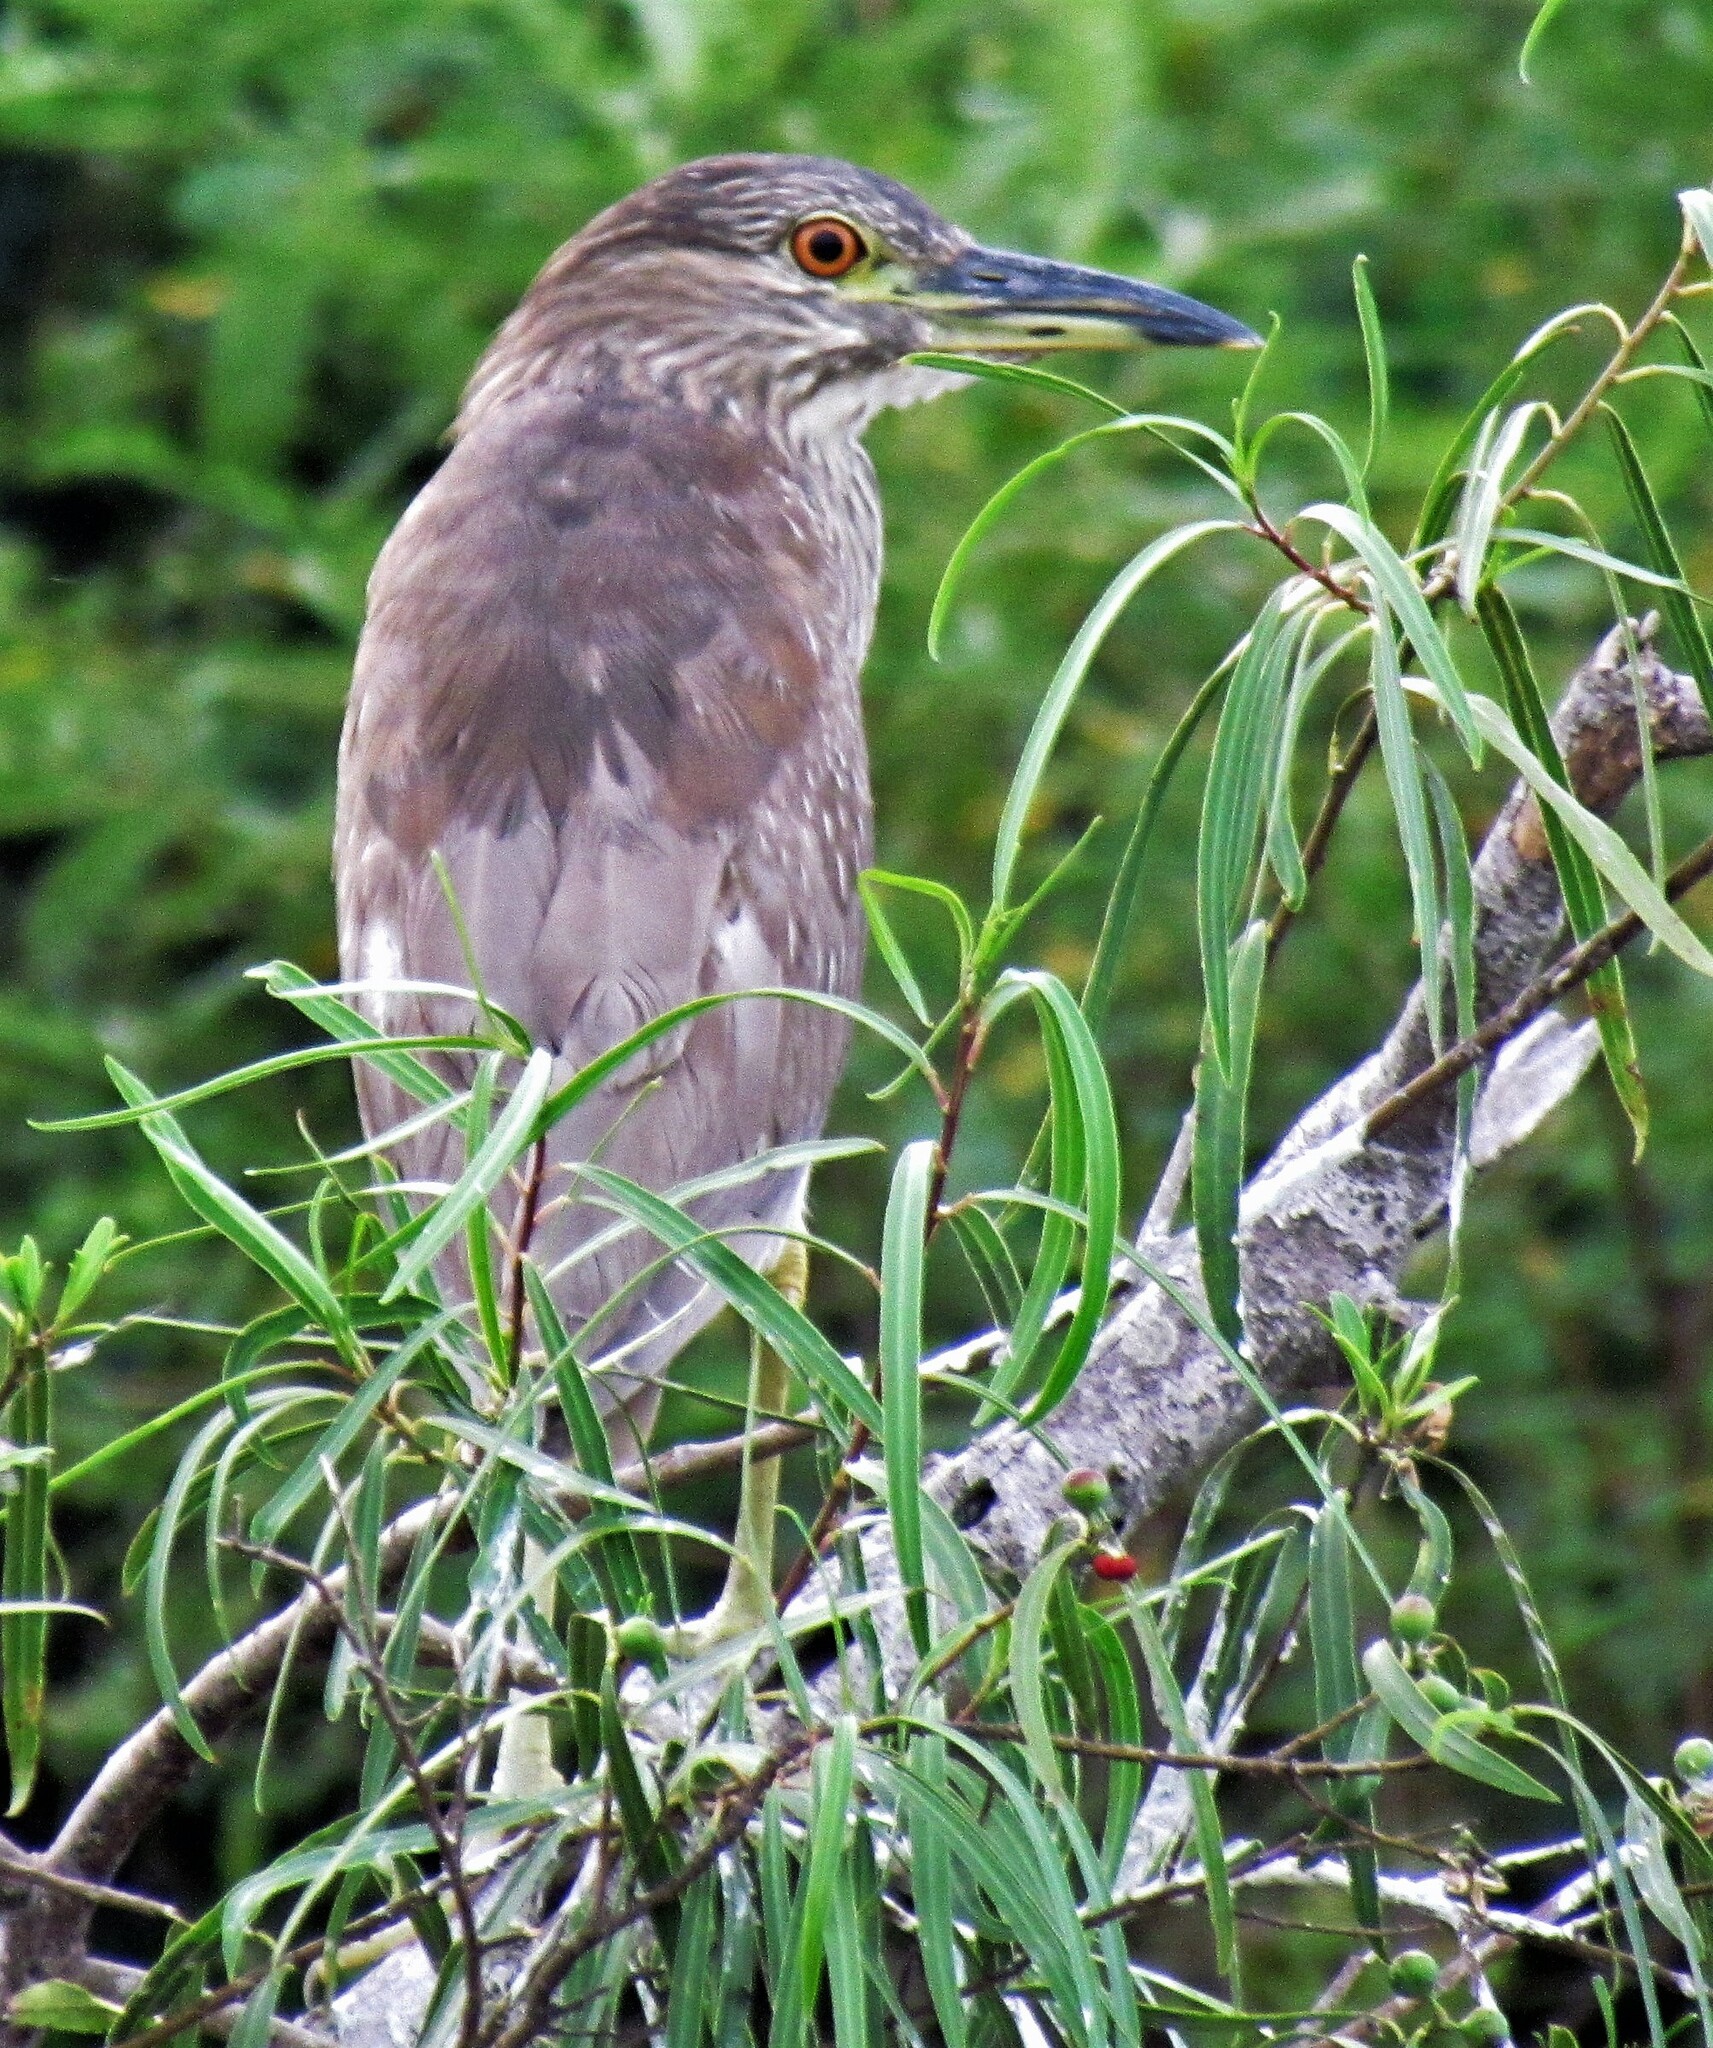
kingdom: Animalia
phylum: Chordata
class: Aves
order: Pelecaniformes
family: Ardeidae
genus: Nycticorax
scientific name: Nycticorax nycticorax
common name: Black-crowned night heron
